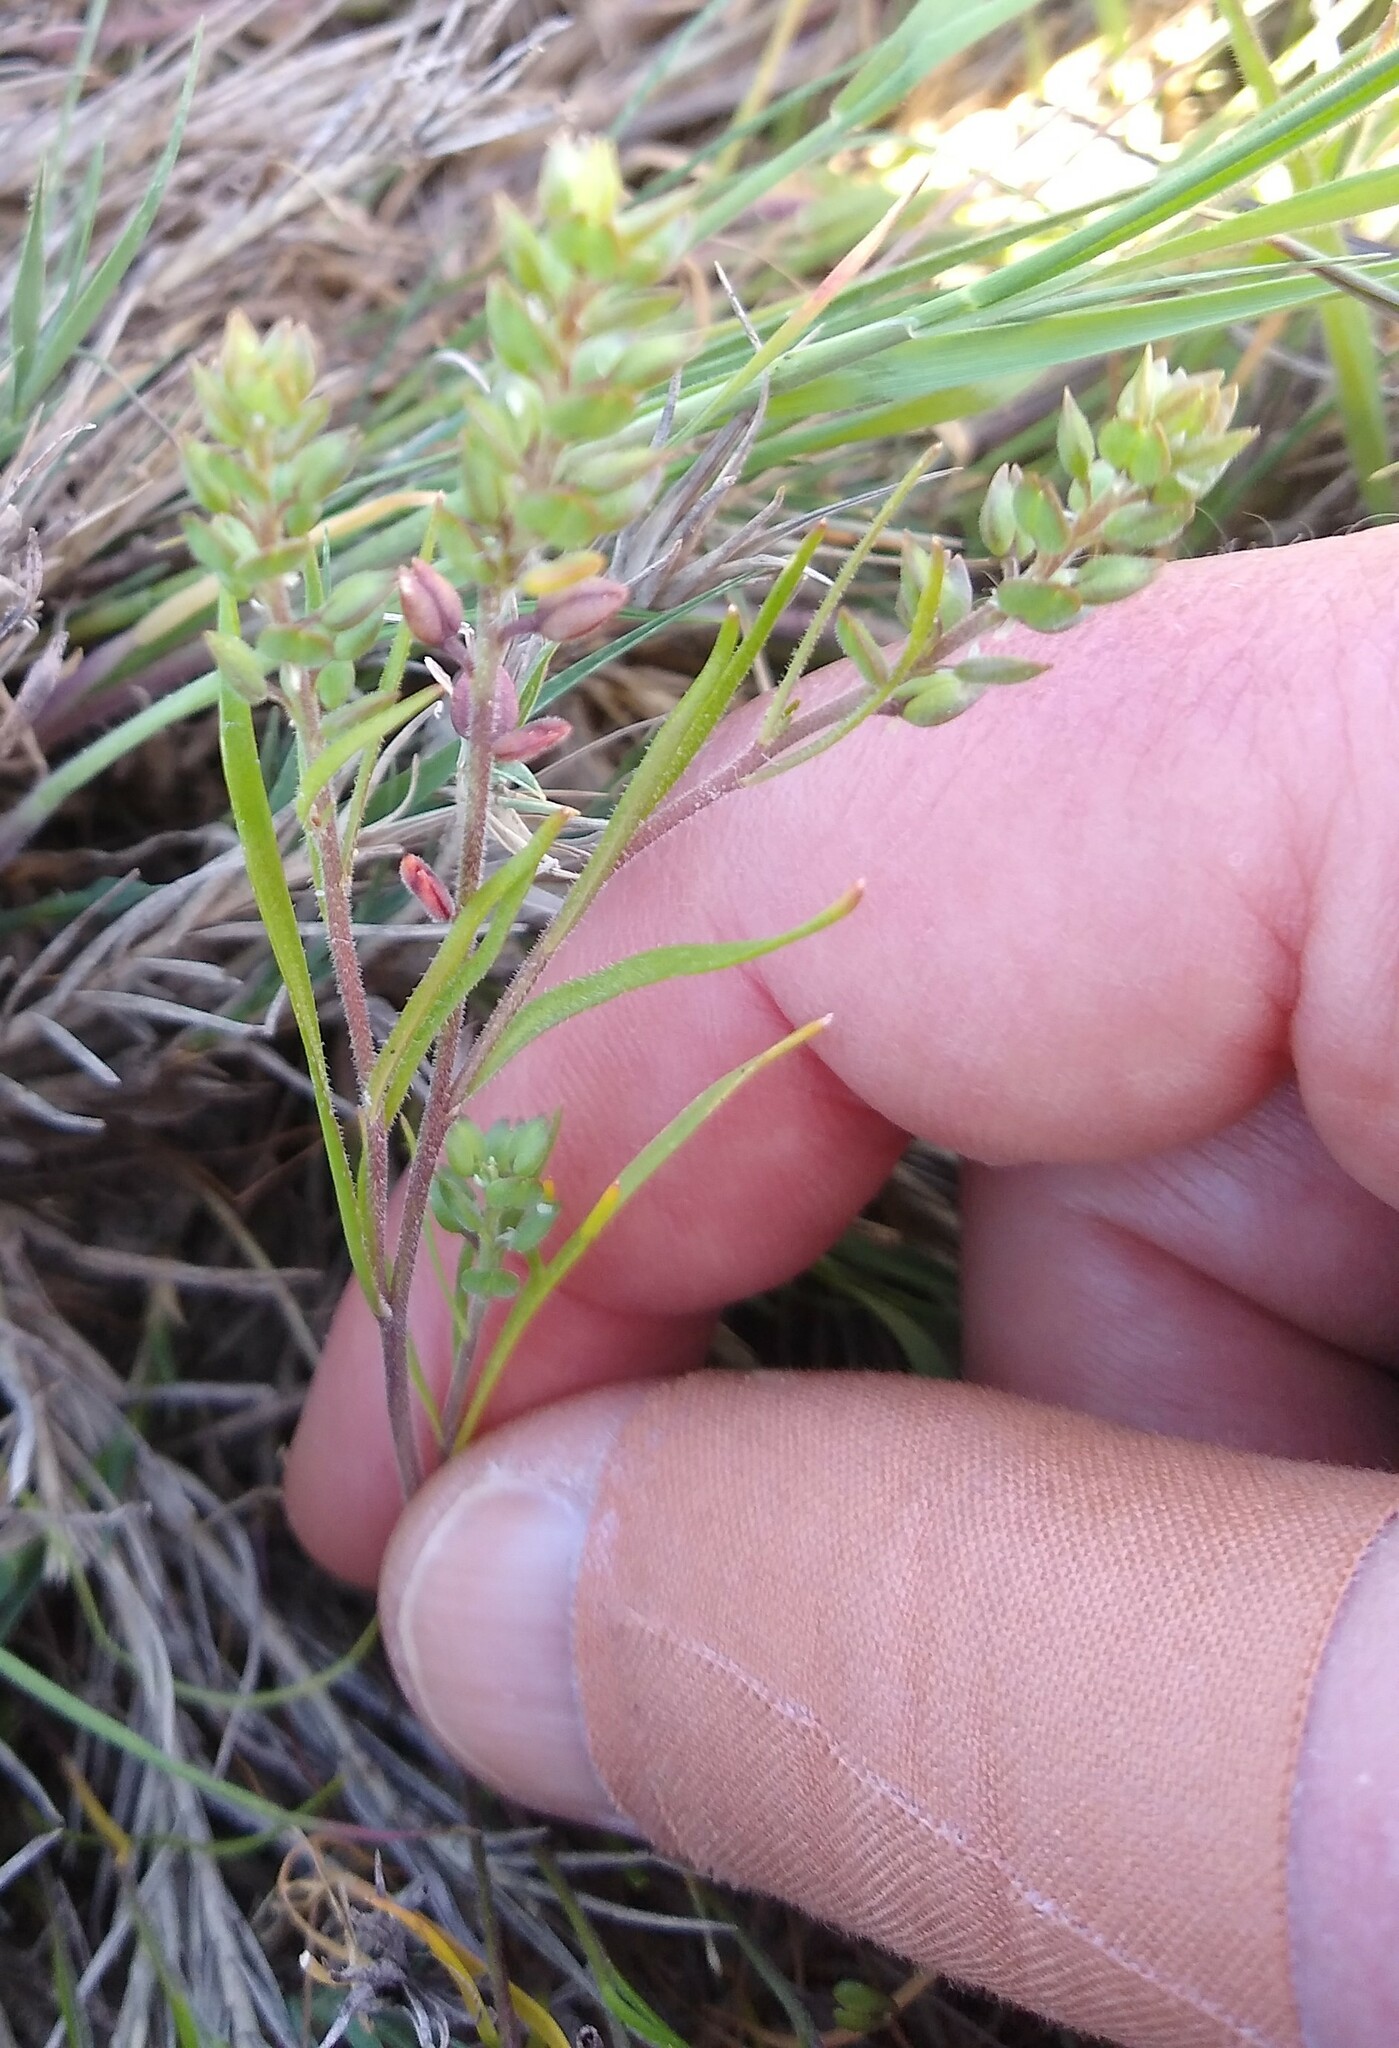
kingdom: Plantae
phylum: Tracheophyta
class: Magnoliopsida
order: Brassicales
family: Brassicaceae
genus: Lepidium
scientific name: Lepidium dictyotum
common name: Alkali pepperwort
